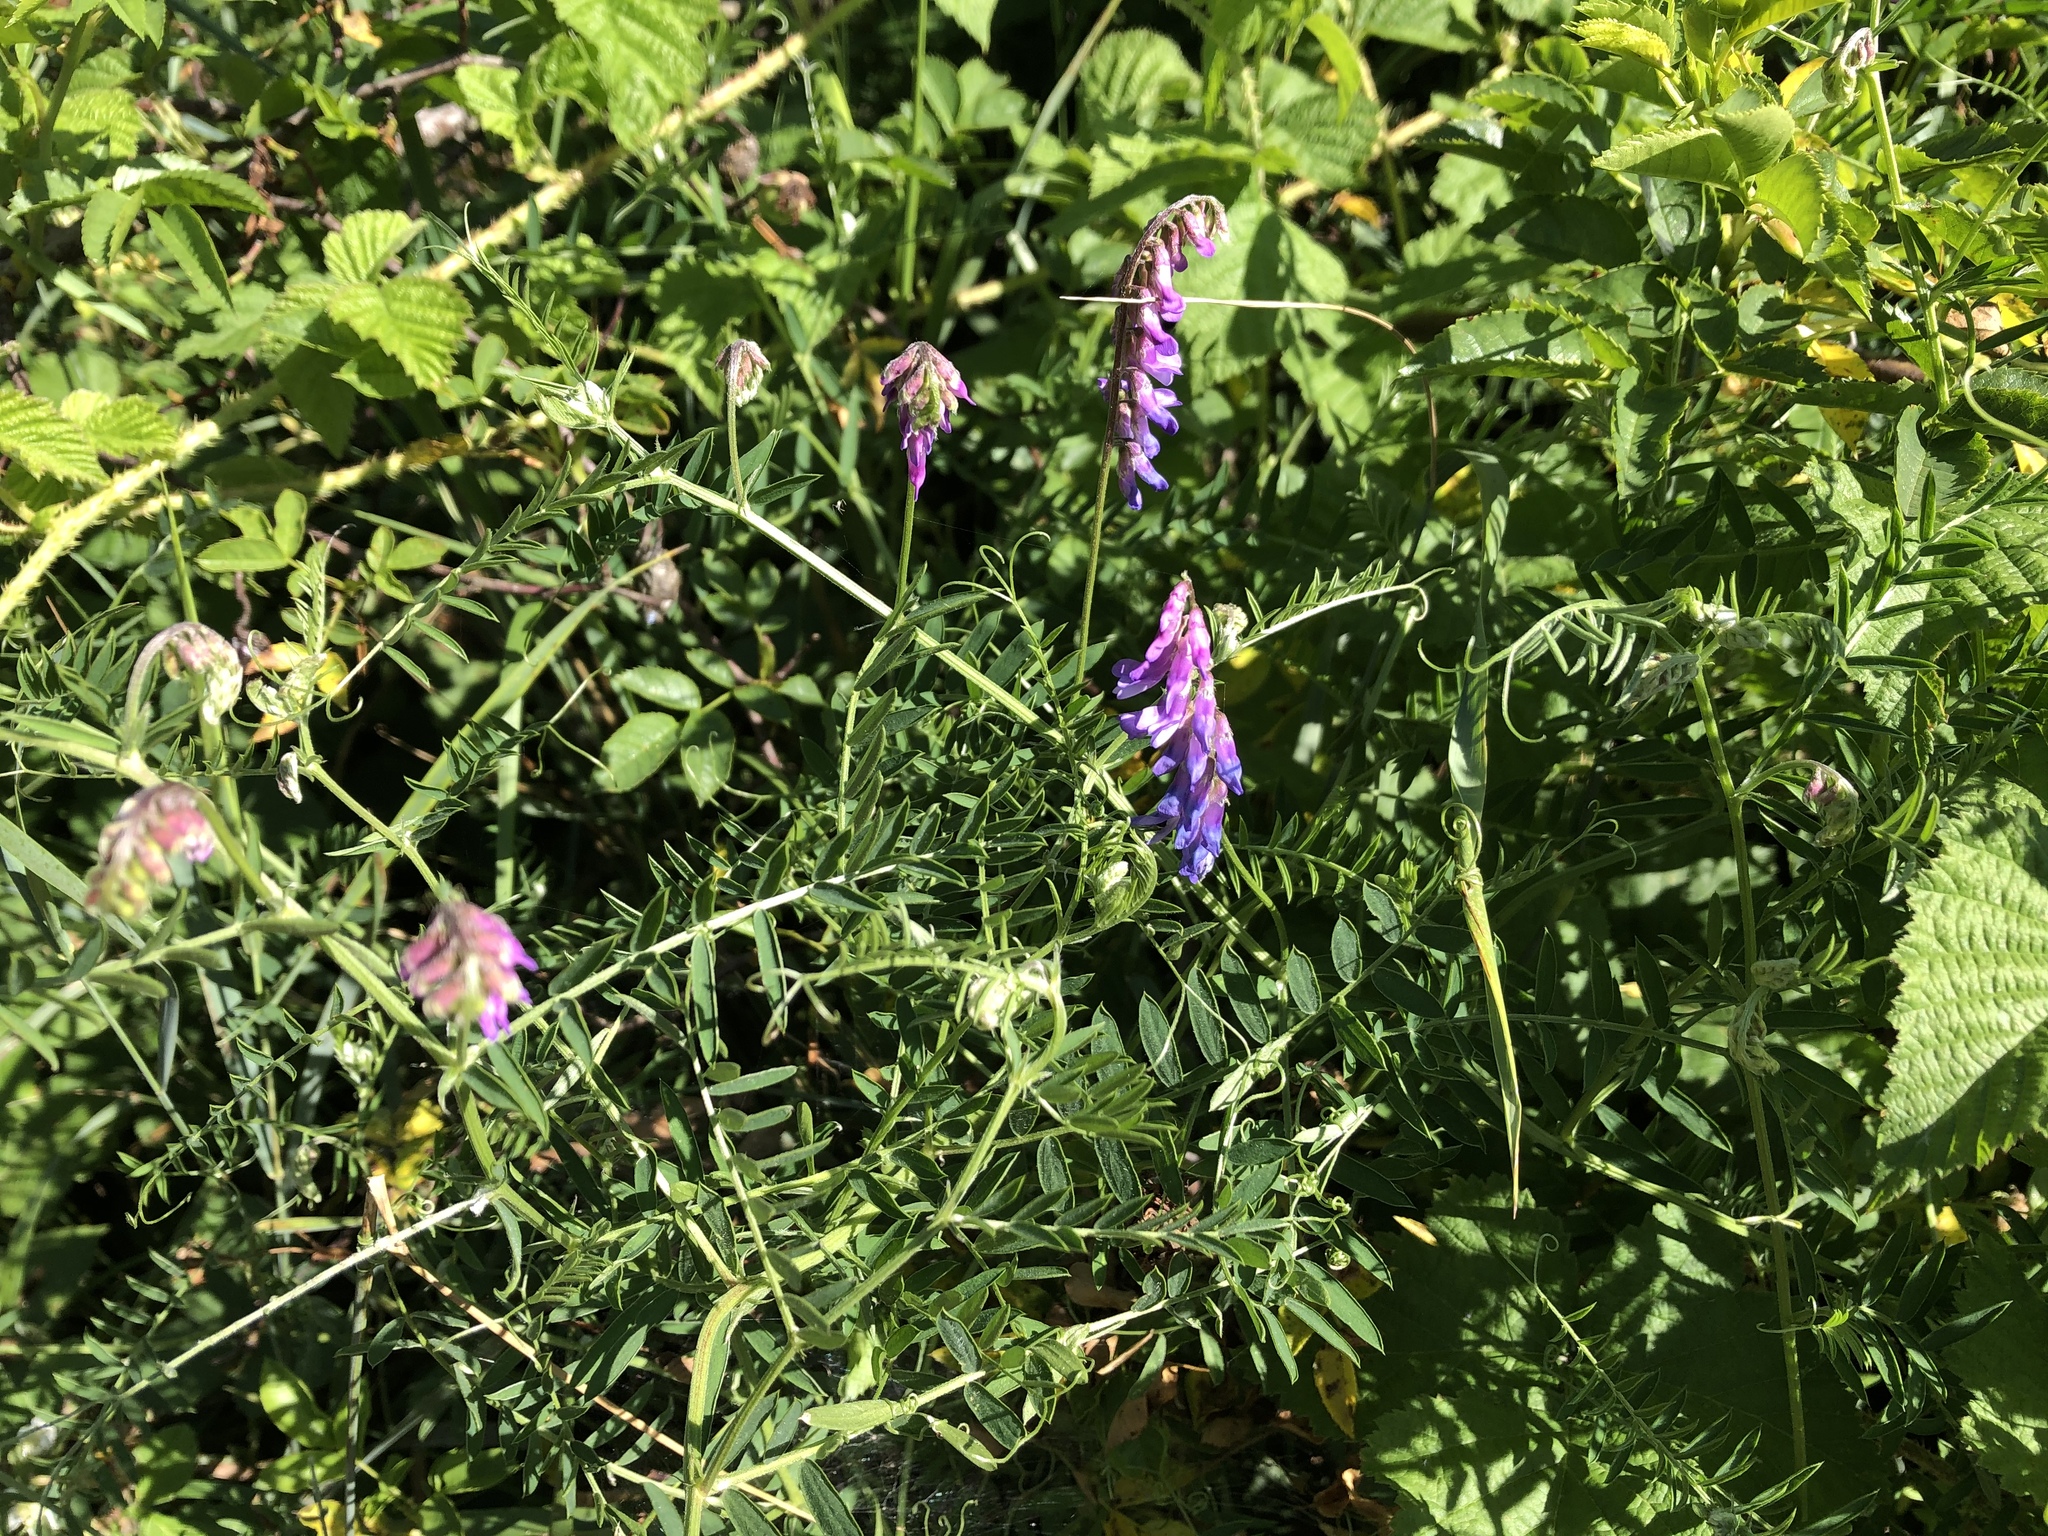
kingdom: Plantae
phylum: Tracheophyta
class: Magnoliopsida
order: Fabales
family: Fabaceae
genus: Vicia
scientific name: Vicia cracca
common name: Bird vetch
